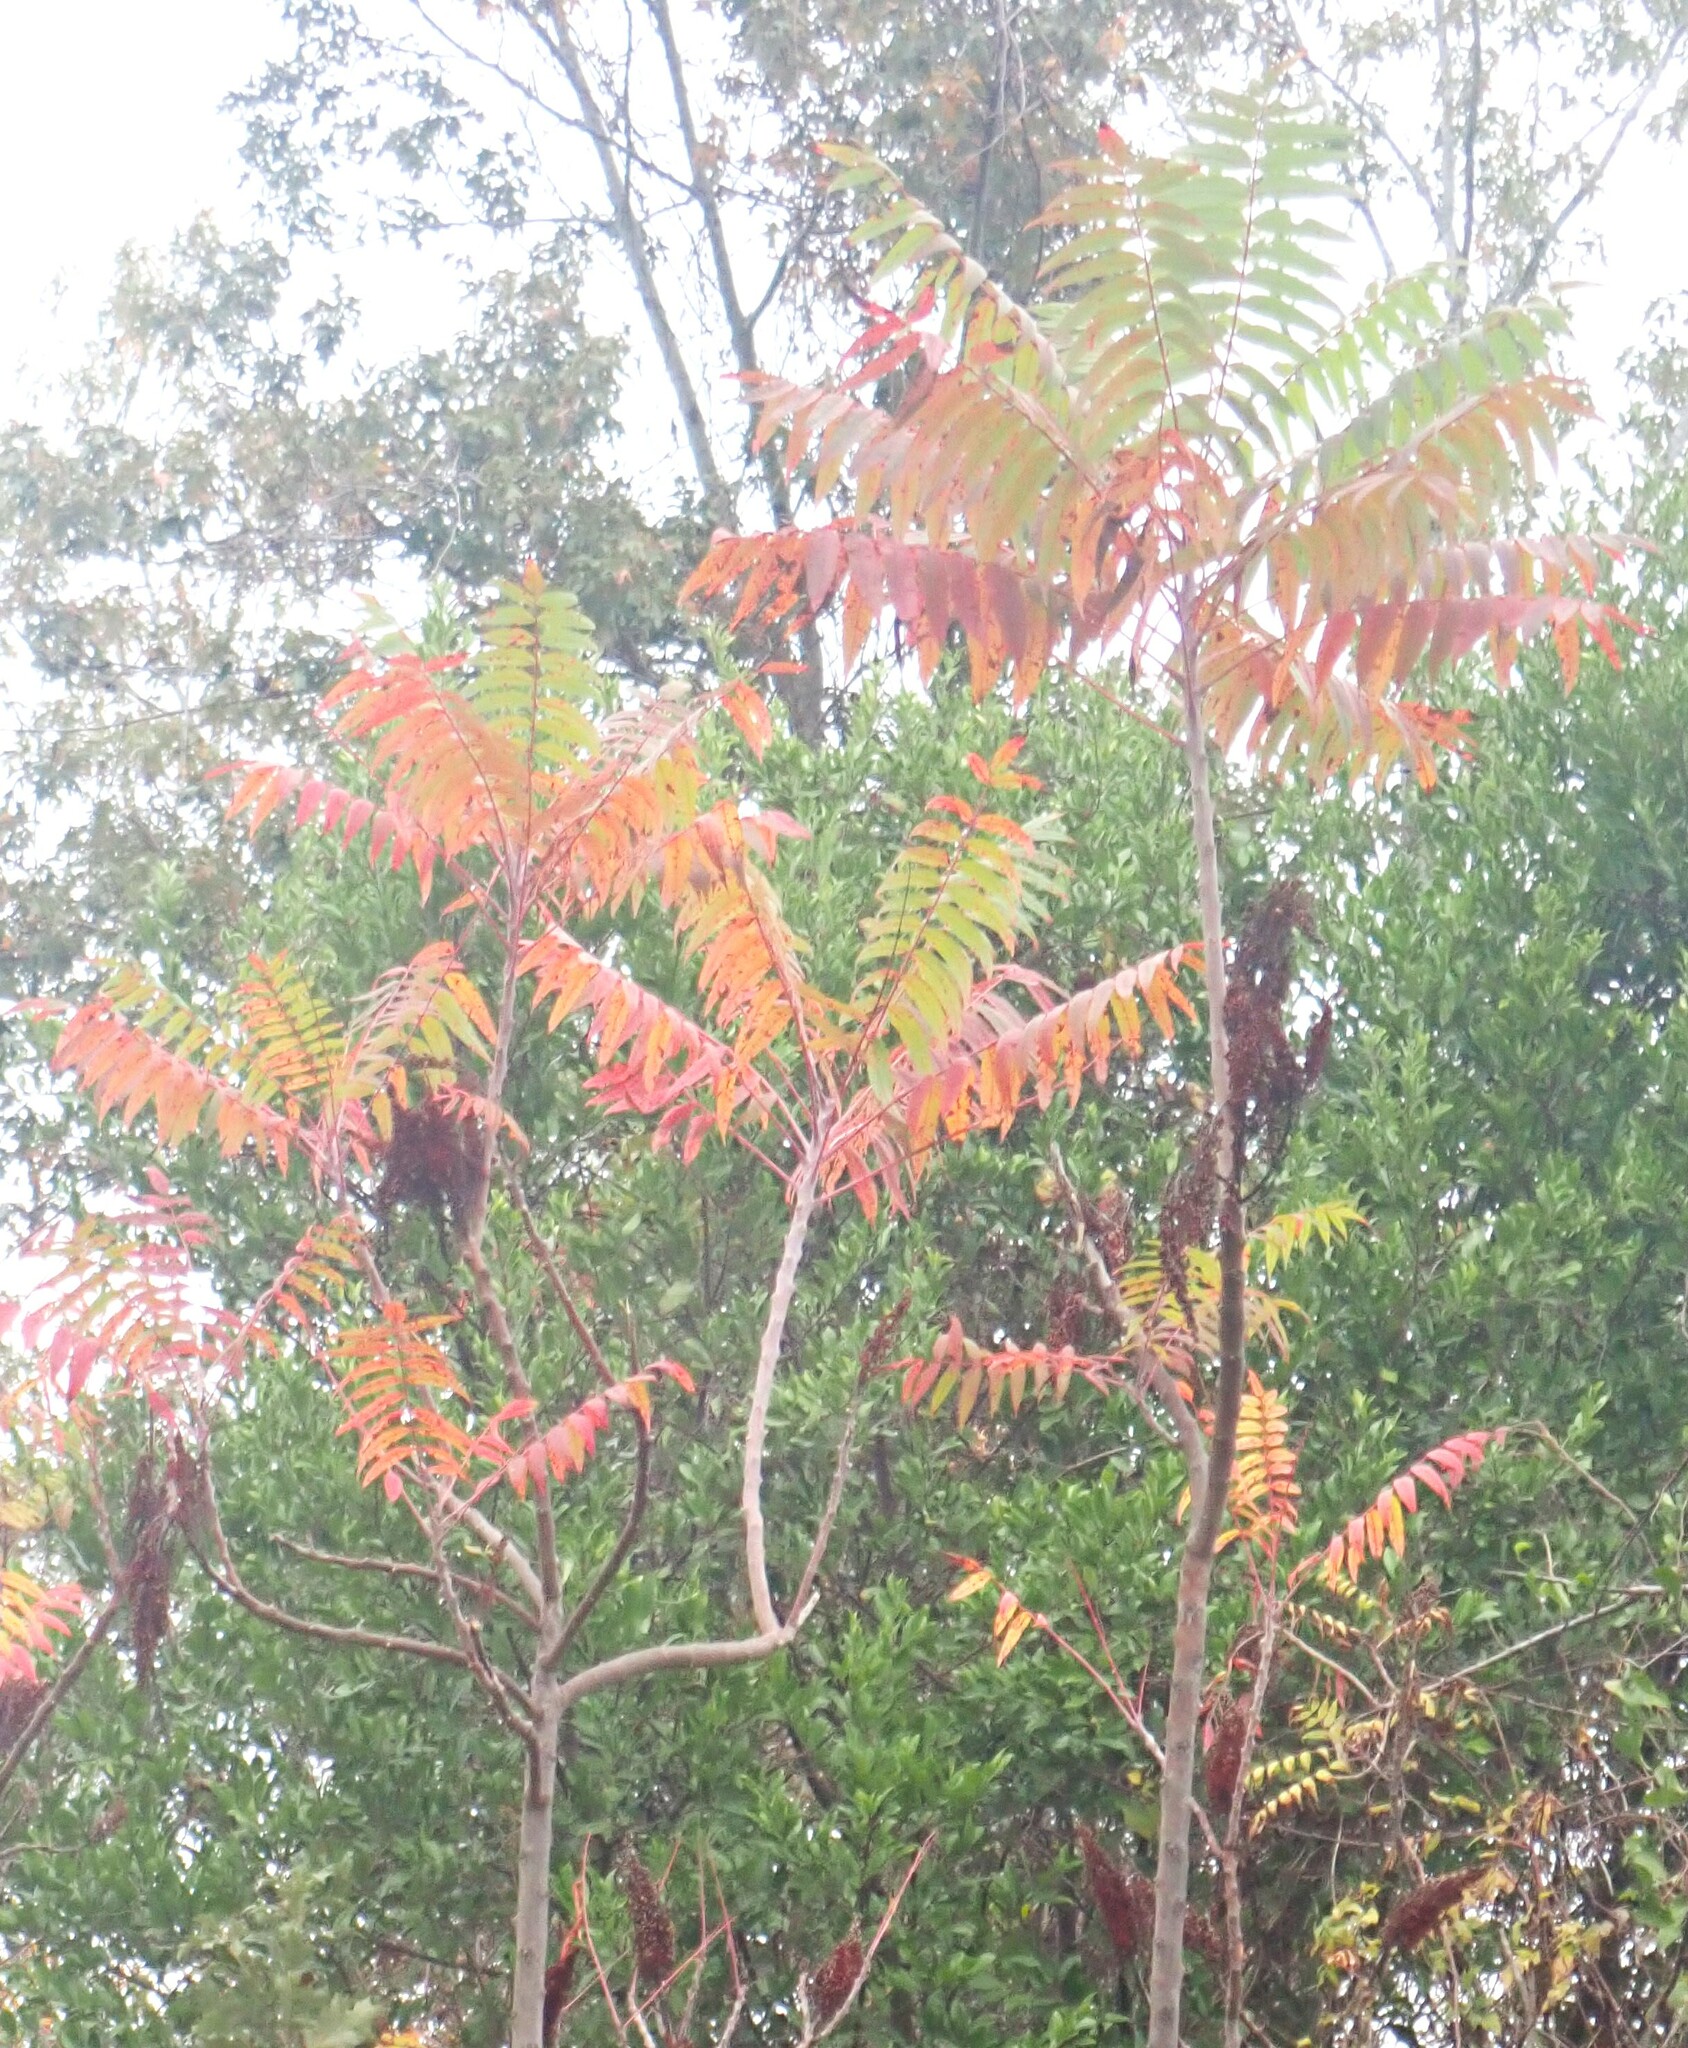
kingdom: Plantae
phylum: Tracheophyta
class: Magnoliopsida
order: Sapindales
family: Anacardiaceae
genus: Rhus
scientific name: Rhus copallina
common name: Shining sumac
